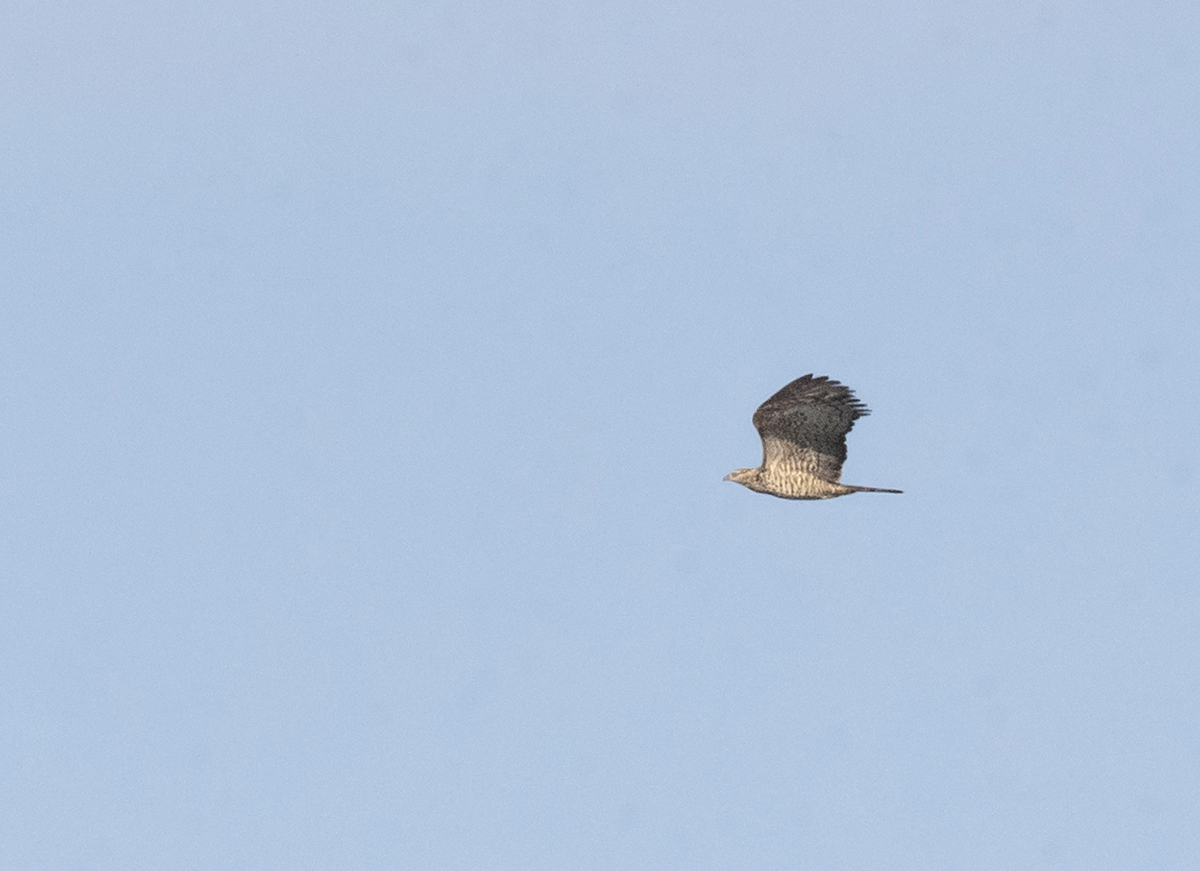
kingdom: Animalia
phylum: Chordata
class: Aves
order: Accipitriformes
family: Accipitridae
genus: Pernis
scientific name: Pernis ptilorhynchus
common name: Crested honey buzzard
